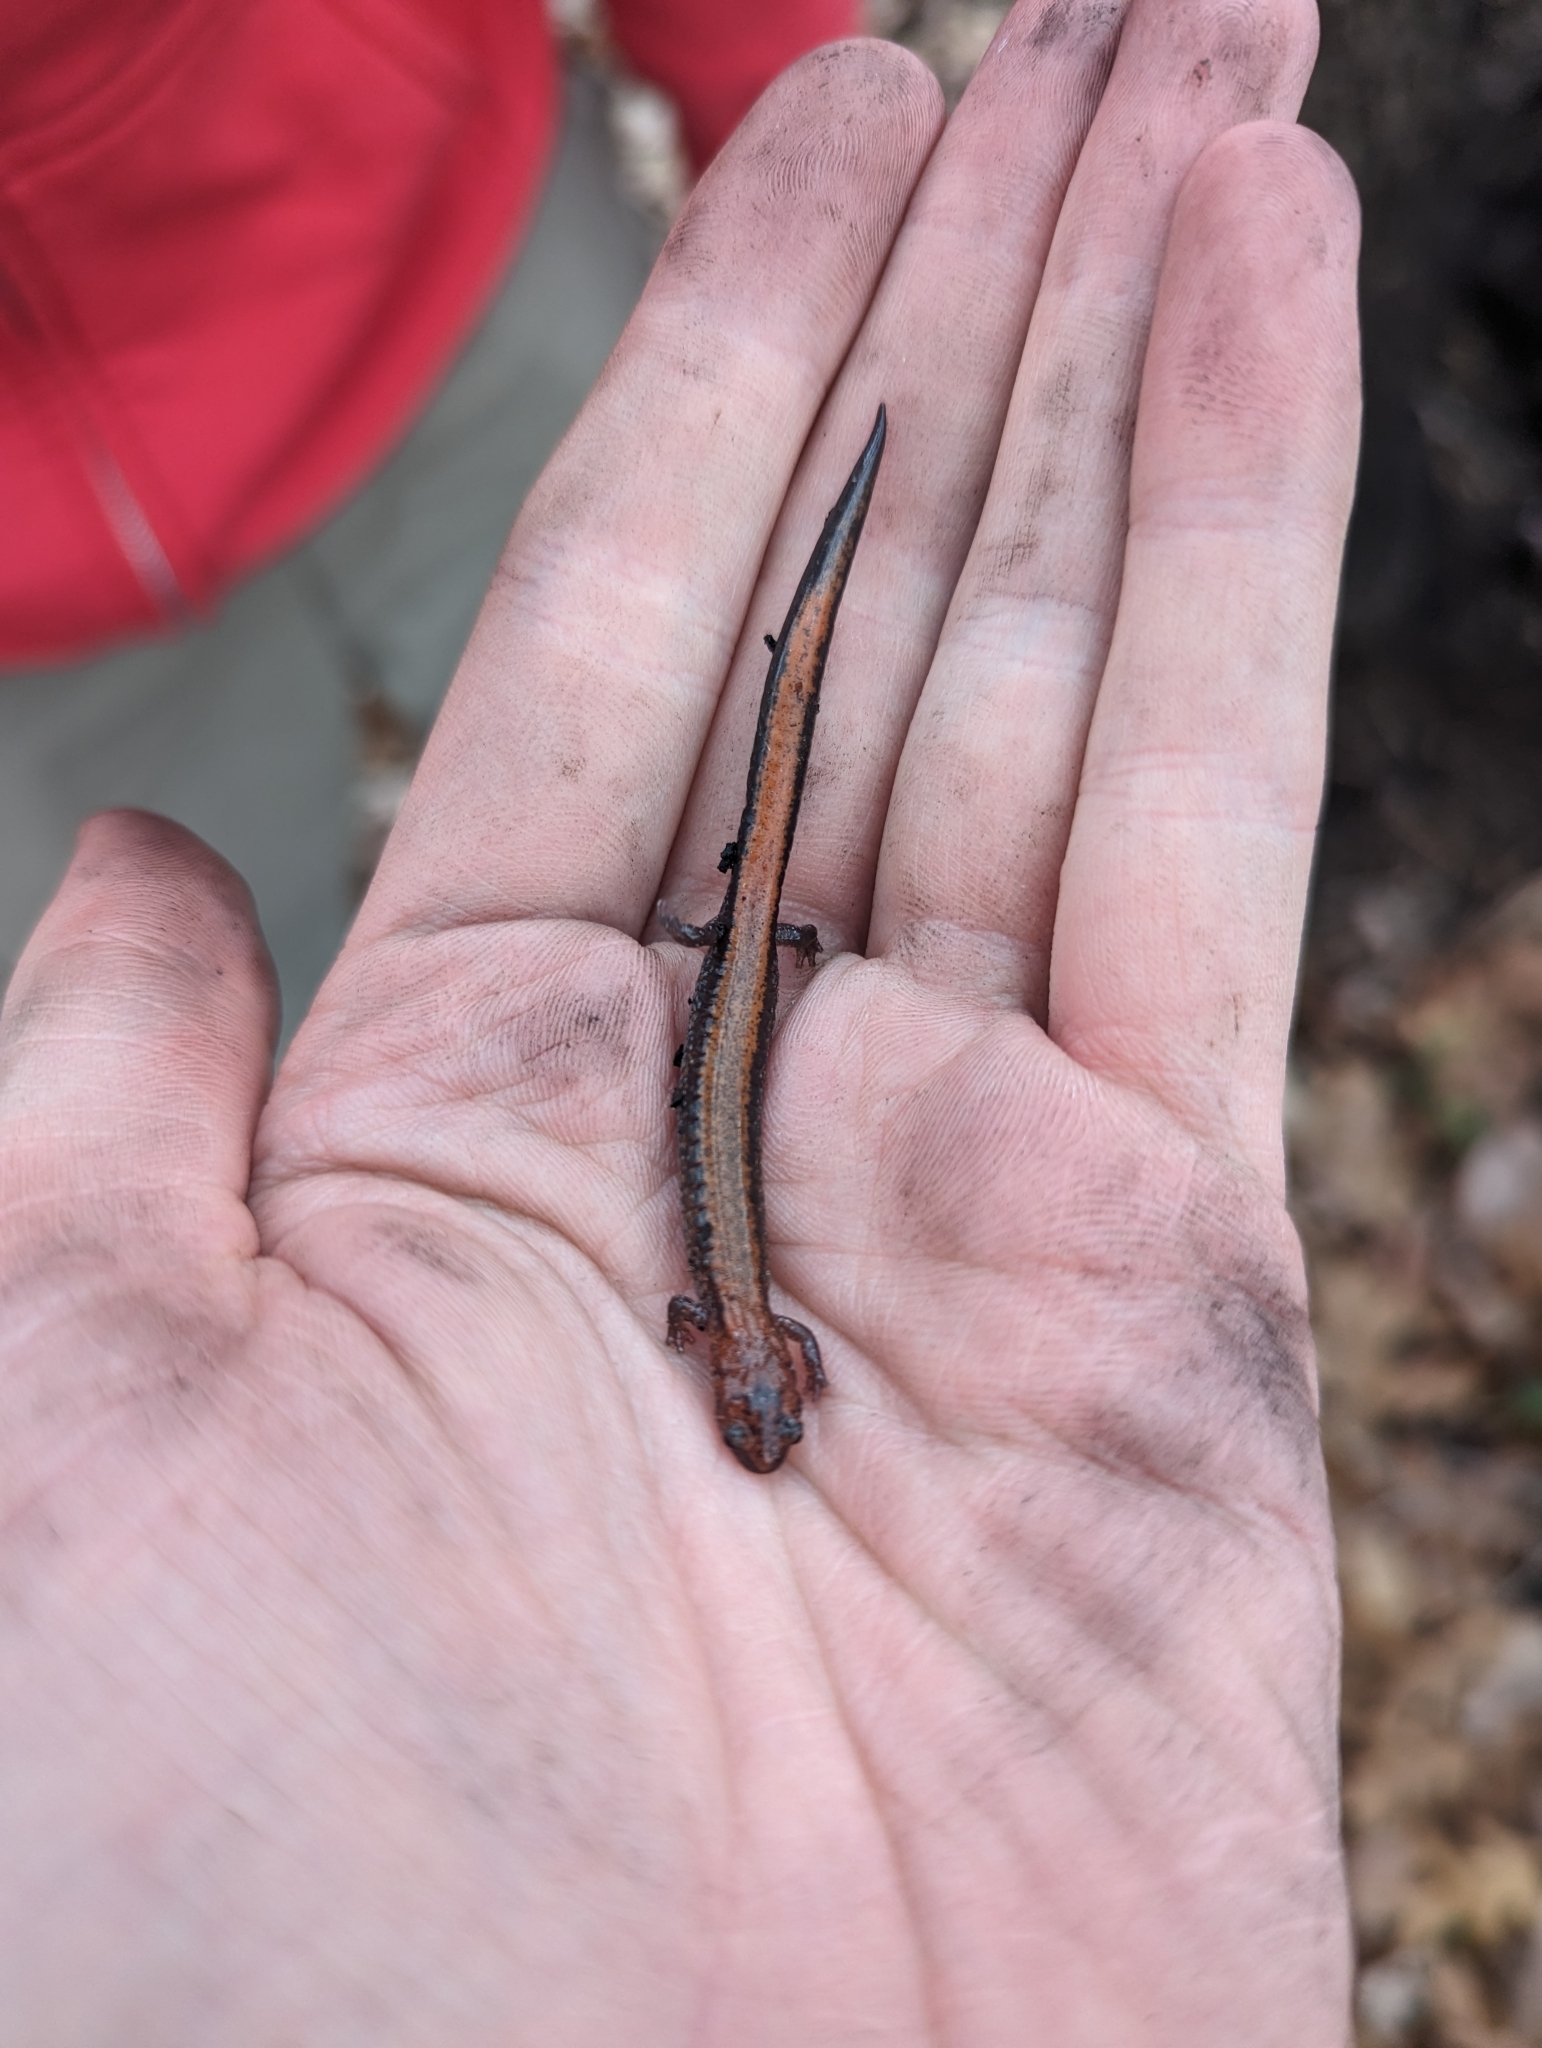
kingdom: Animalia
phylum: Chordata
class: Amphibia
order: Caudata
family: Plethodontidae
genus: Plethodon
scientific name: Plethodon cinereus
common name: Redback salamander
